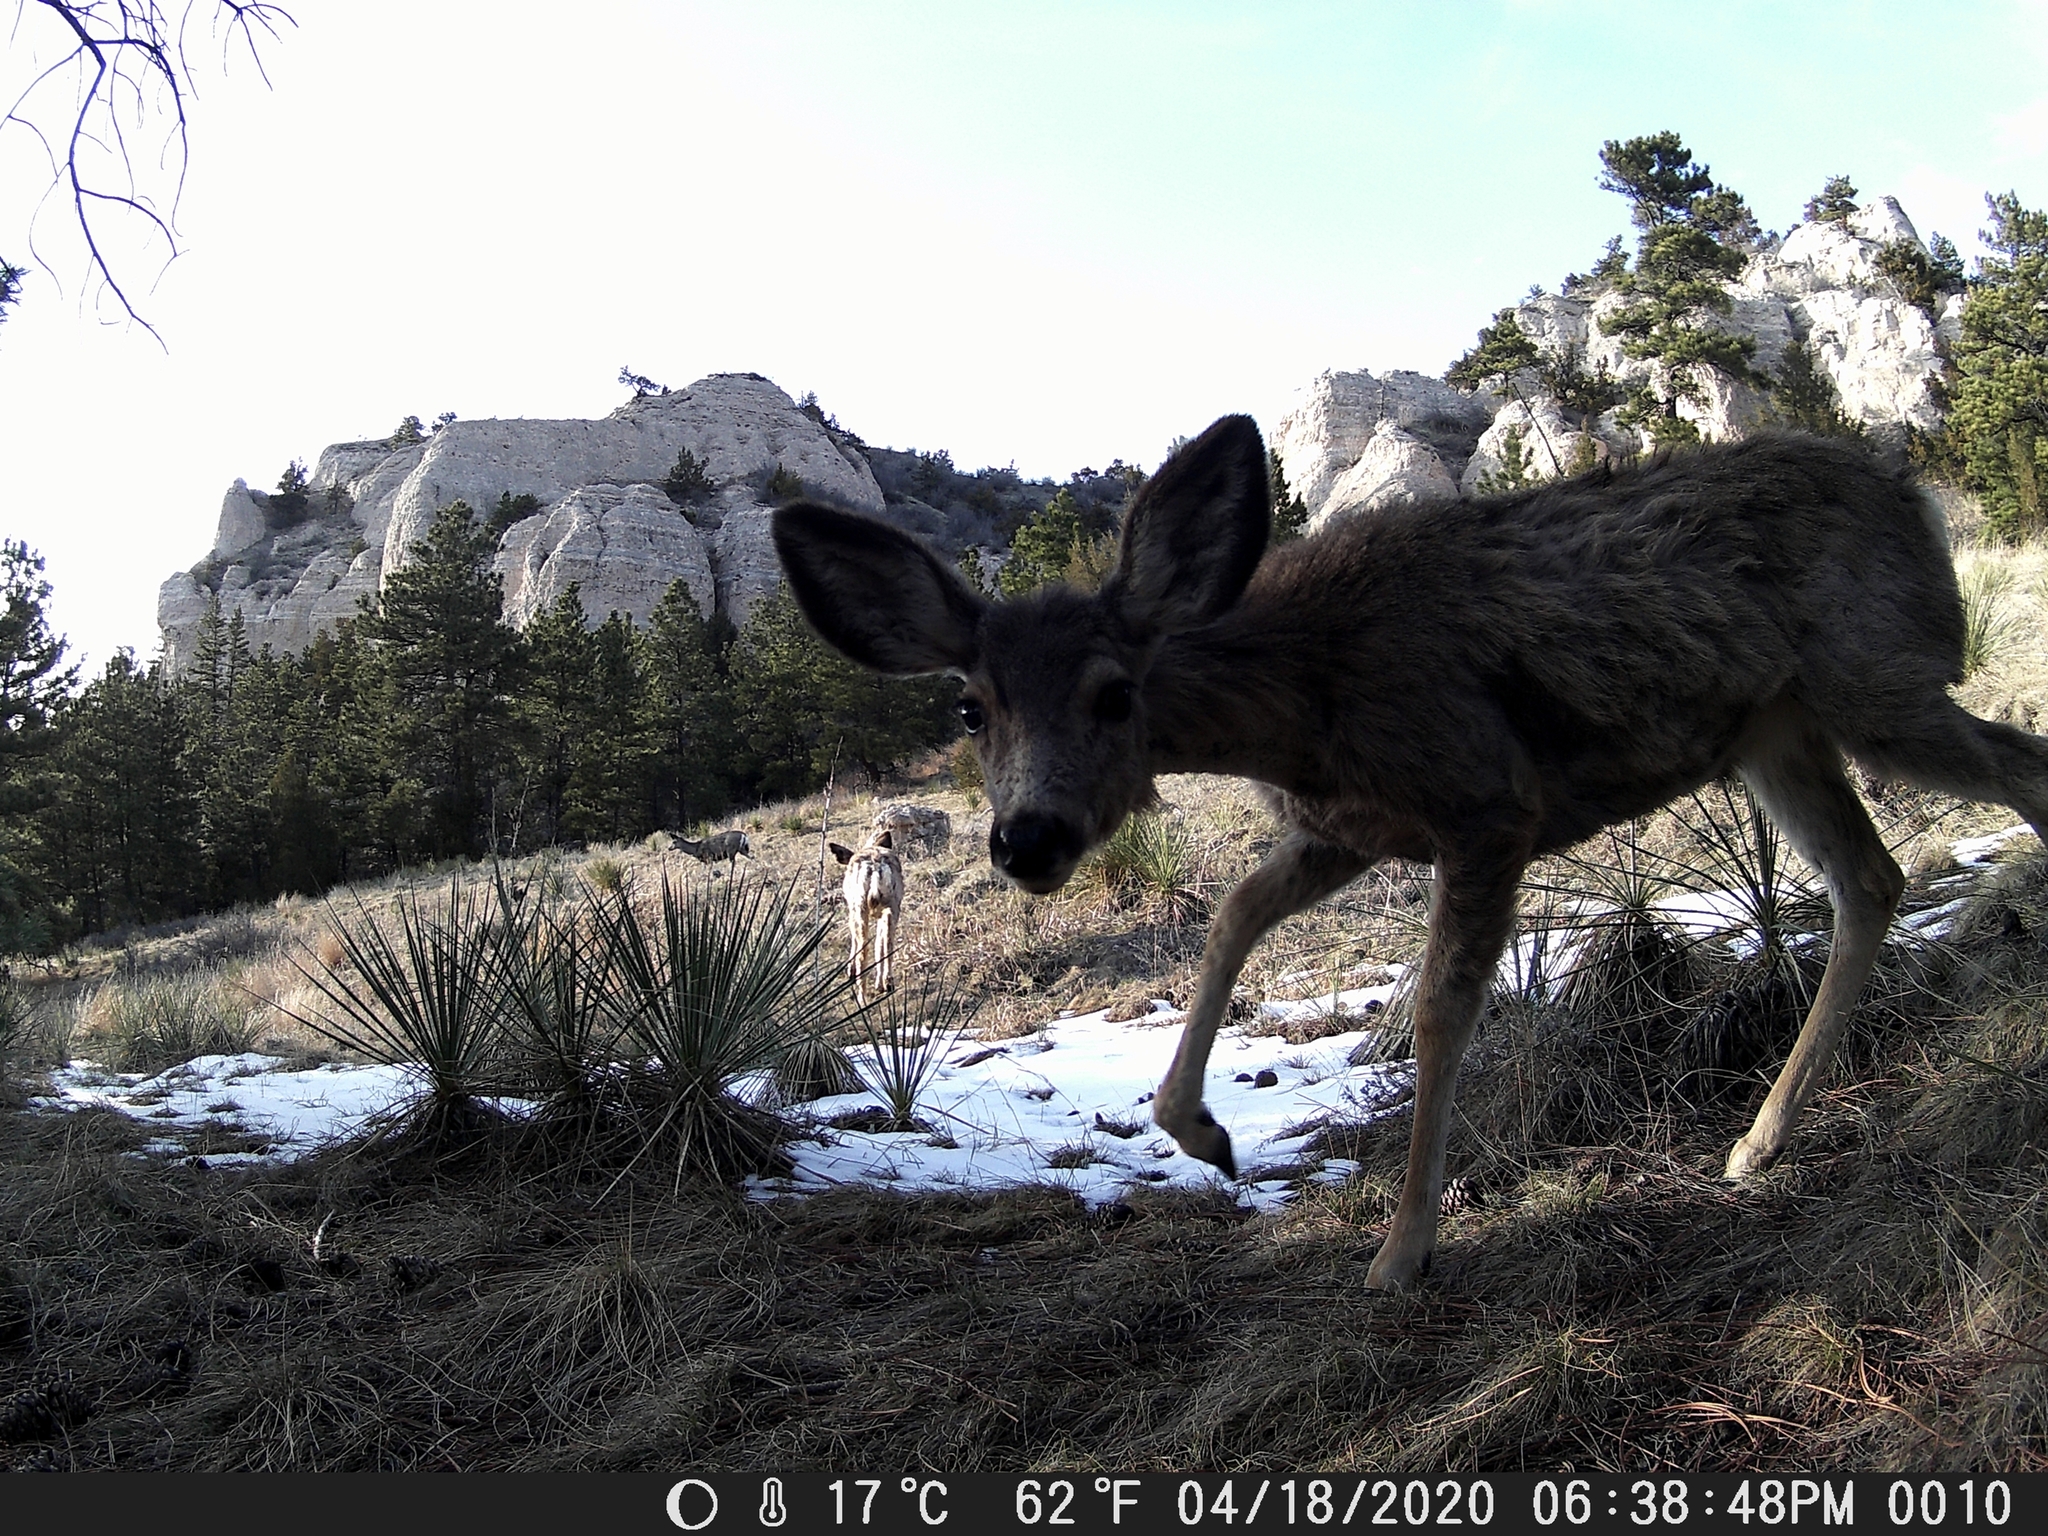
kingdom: Animalia
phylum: Chordata
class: Mammalia
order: Artiodactyla
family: Cervidae
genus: Odocoileus
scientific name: Odocoileus hemionus
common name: Mule deer
